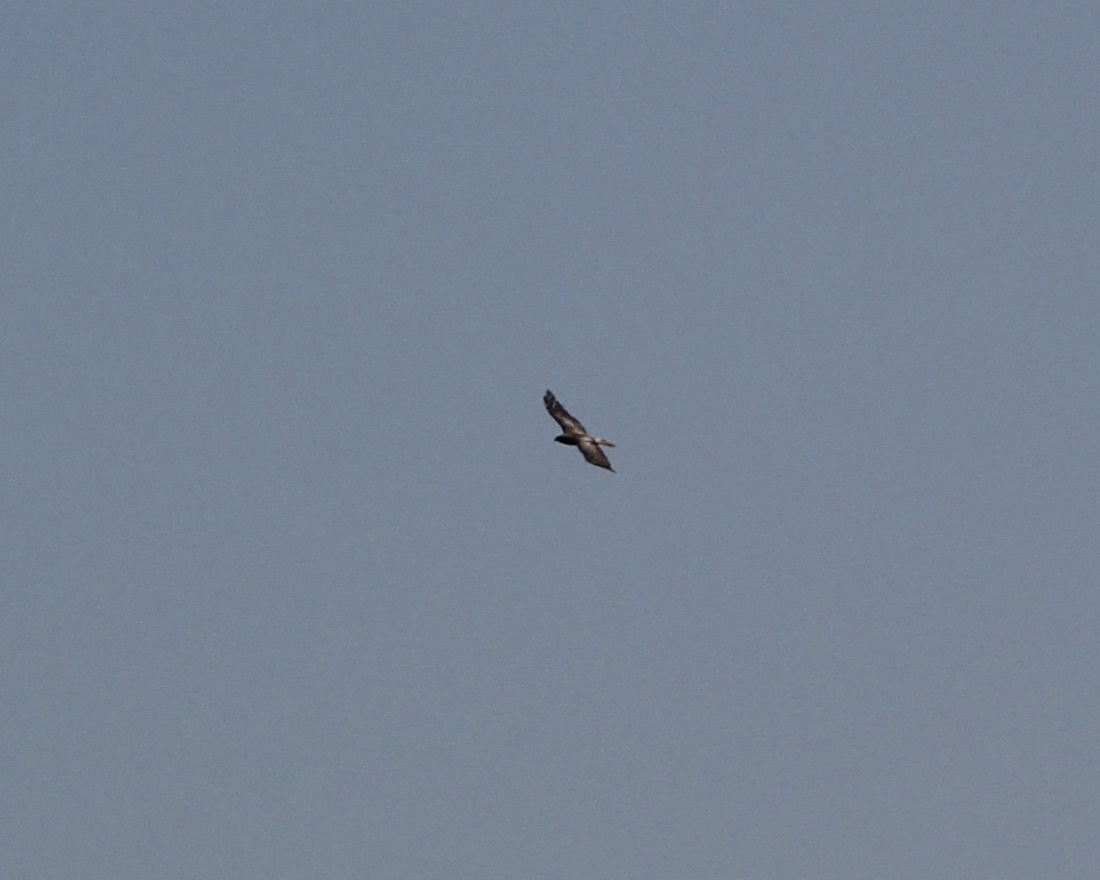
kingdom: Animalia
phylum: Chordata
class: Aves
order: Accipitriformes
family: Accipitridae
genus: Buteo
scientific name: Buteo jamaicensis
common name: Red-tailed hawk
